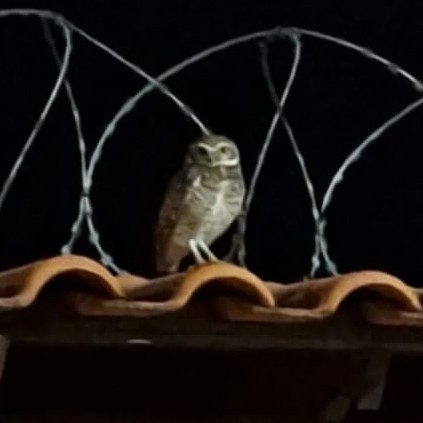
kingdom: Animalia
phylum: Chordata
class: Aves
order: Strigiformes
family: Strigidae
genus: Athene
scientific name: Athene cunicularia
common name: Burrowing owl
